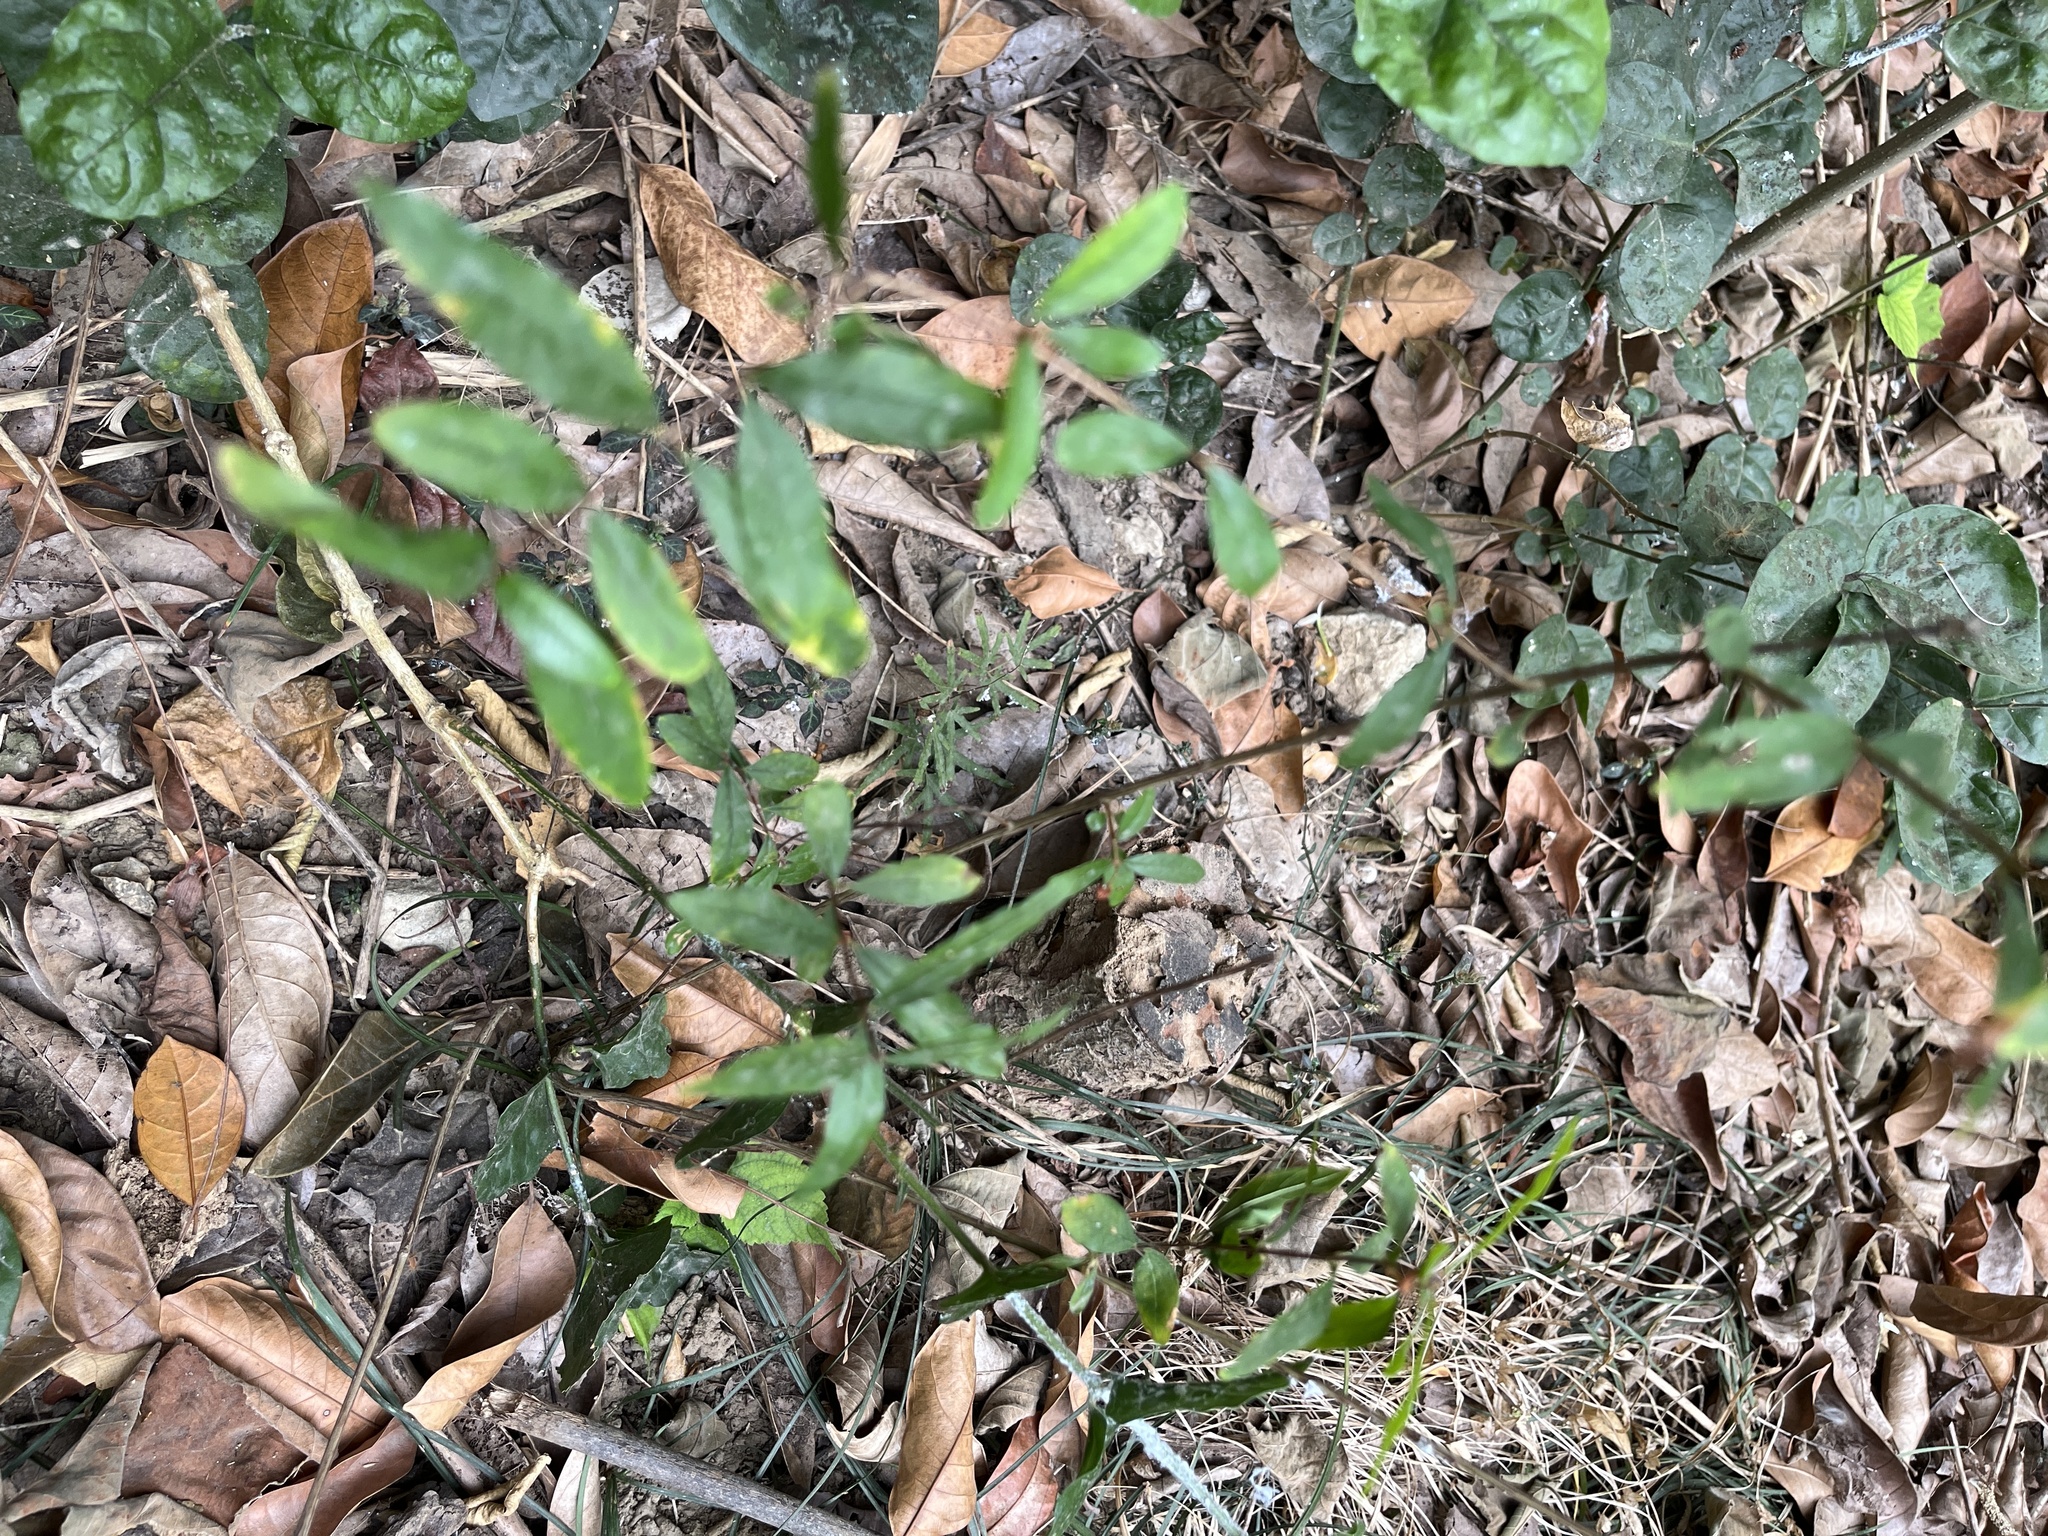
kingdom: Plantae
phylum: Tracheophyta
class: Polypodiopsida
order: Polypodiales
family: Pteridaceae
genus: Pteris
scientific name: Pteris ensiformis
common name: Sword brake
